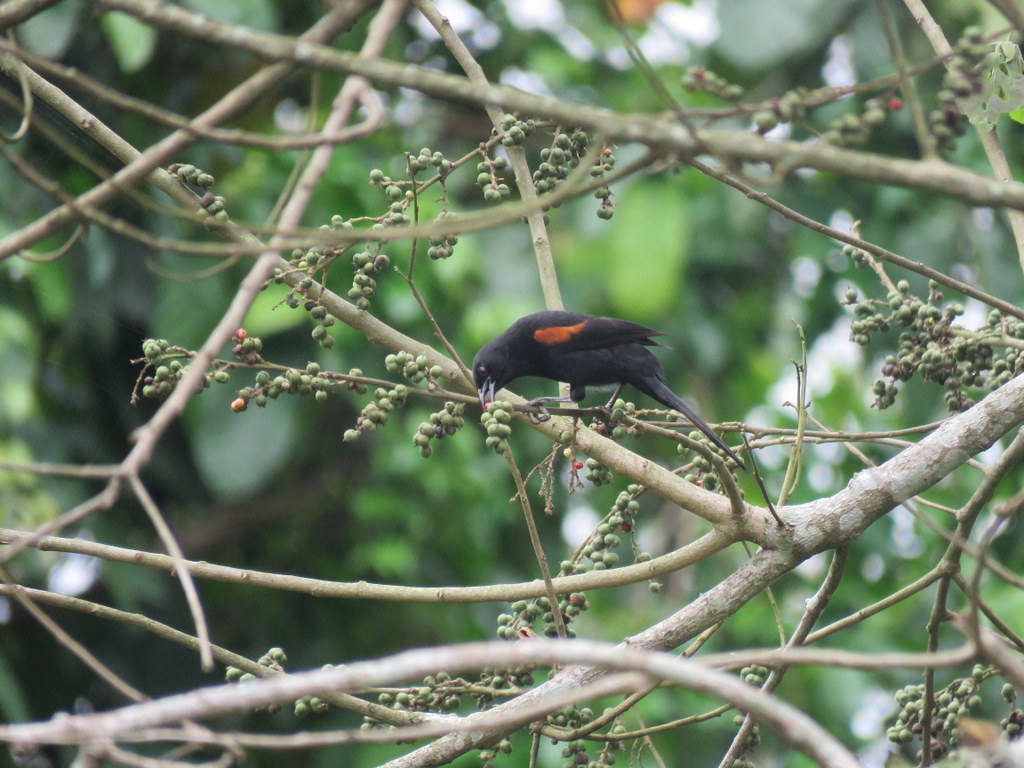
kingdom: Animalia
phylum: Chordata
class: Aves
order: Passeriformes
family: Icteridae
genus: Icterus
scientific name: Icterus cayanensis
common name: Epaulet oriole
